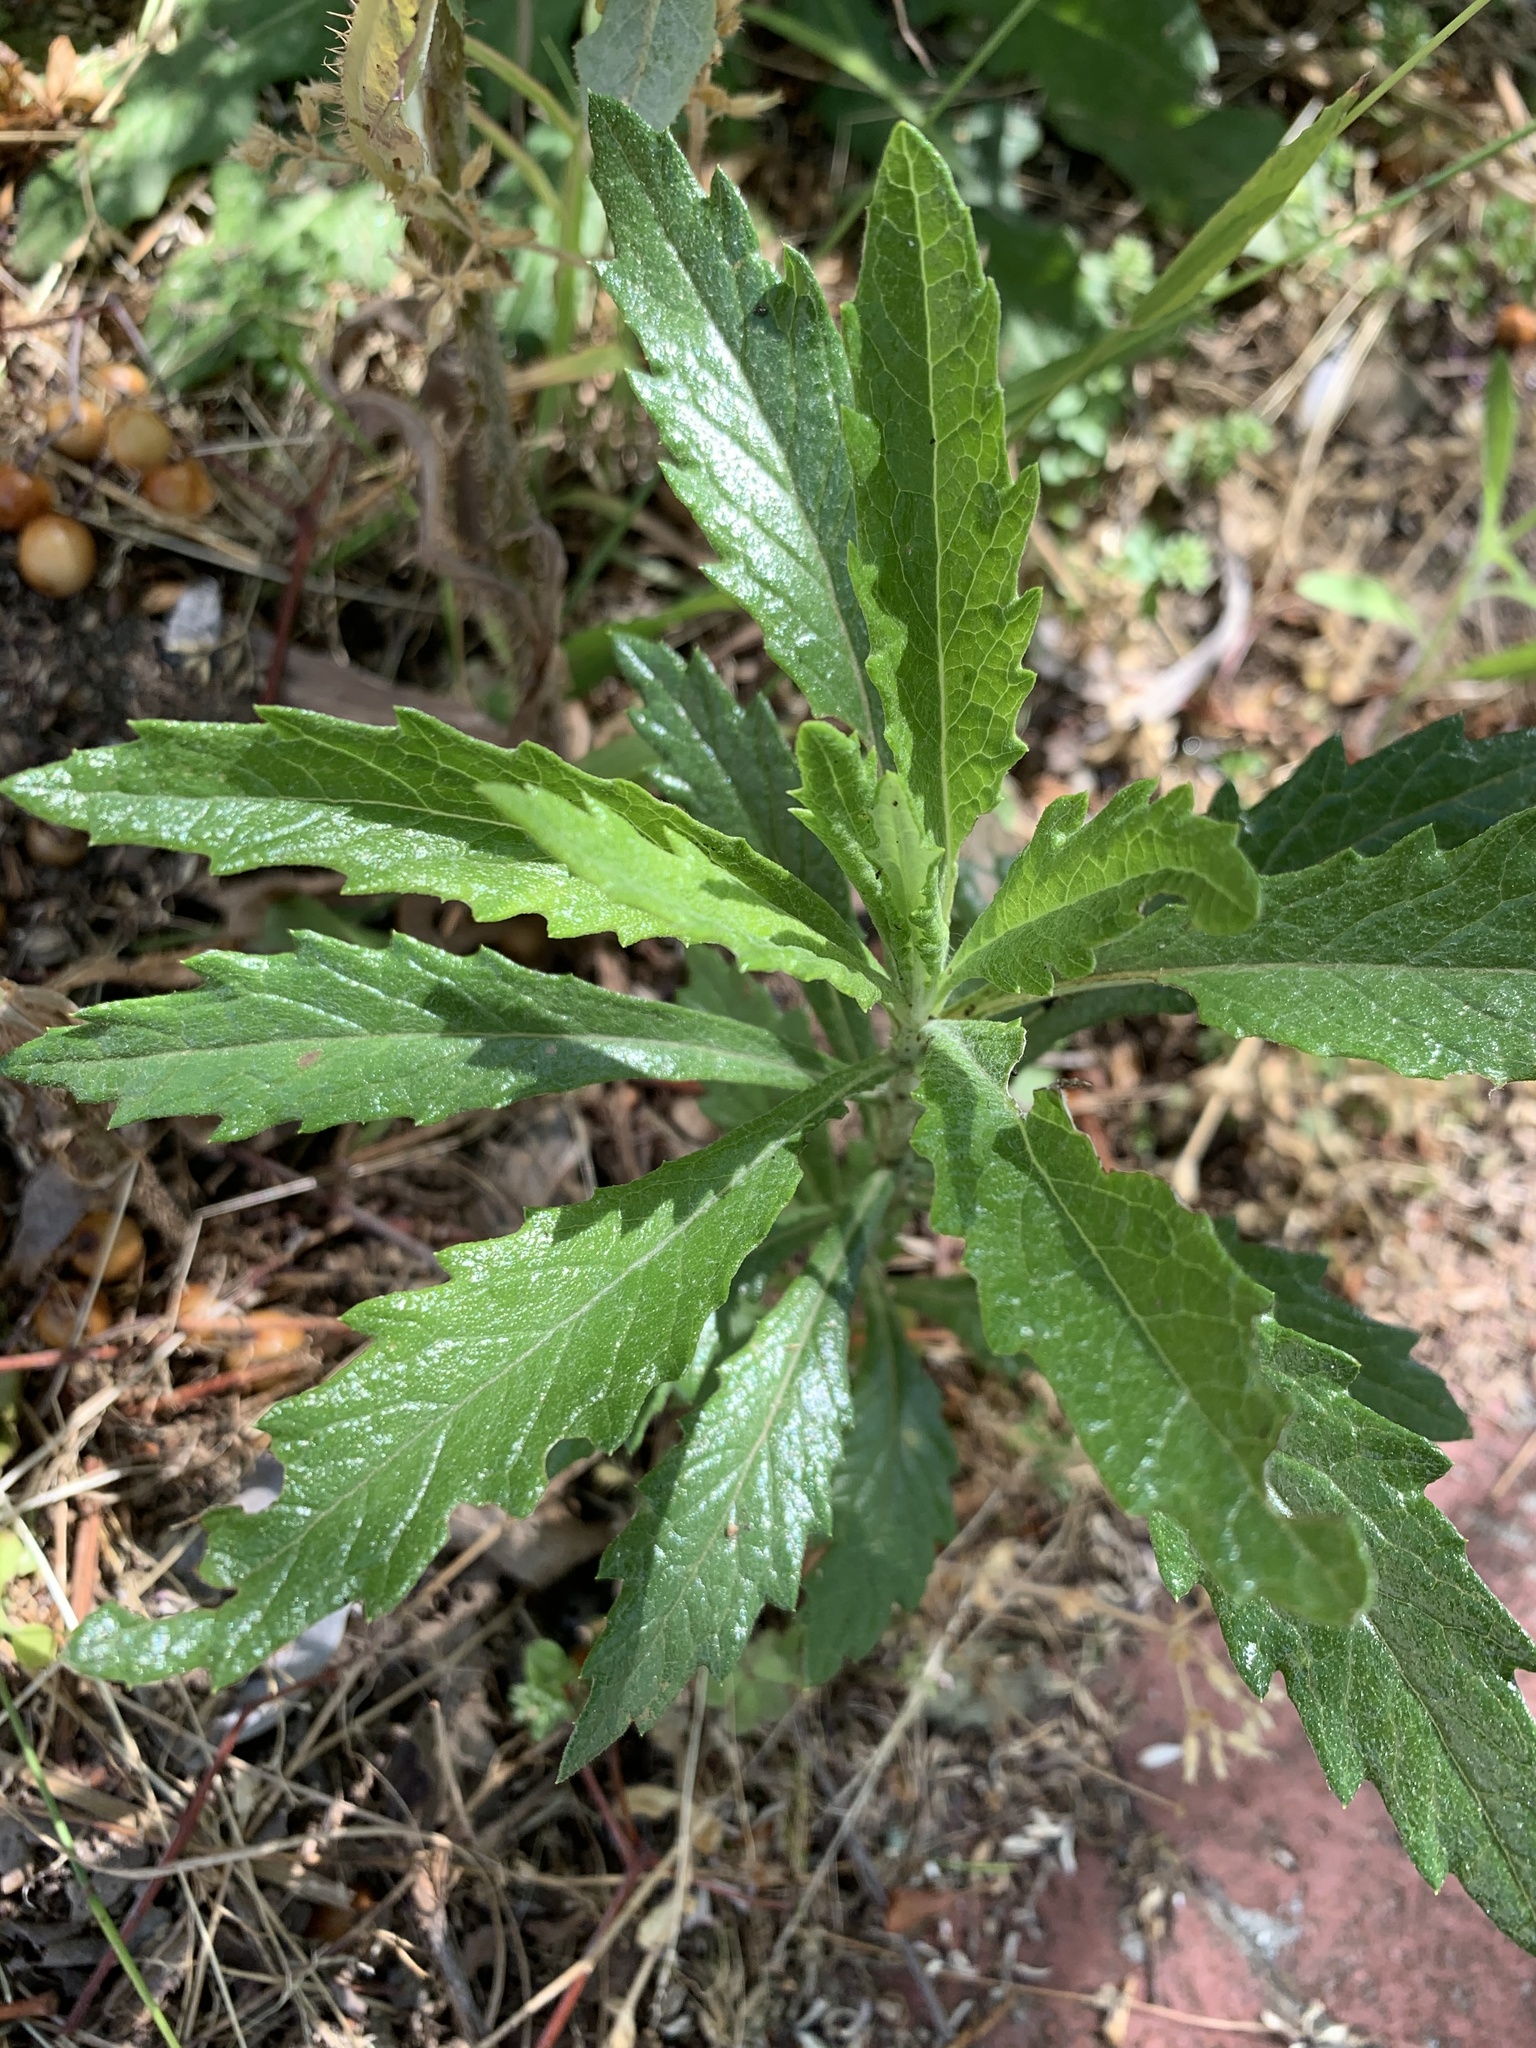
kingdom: Plantae
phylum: Tracheophyta
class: Magnoliopsida
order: Asterales
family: Asteraceae
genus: Senecio
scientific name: Senecio pterophorus
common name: Shoddy ragwort
